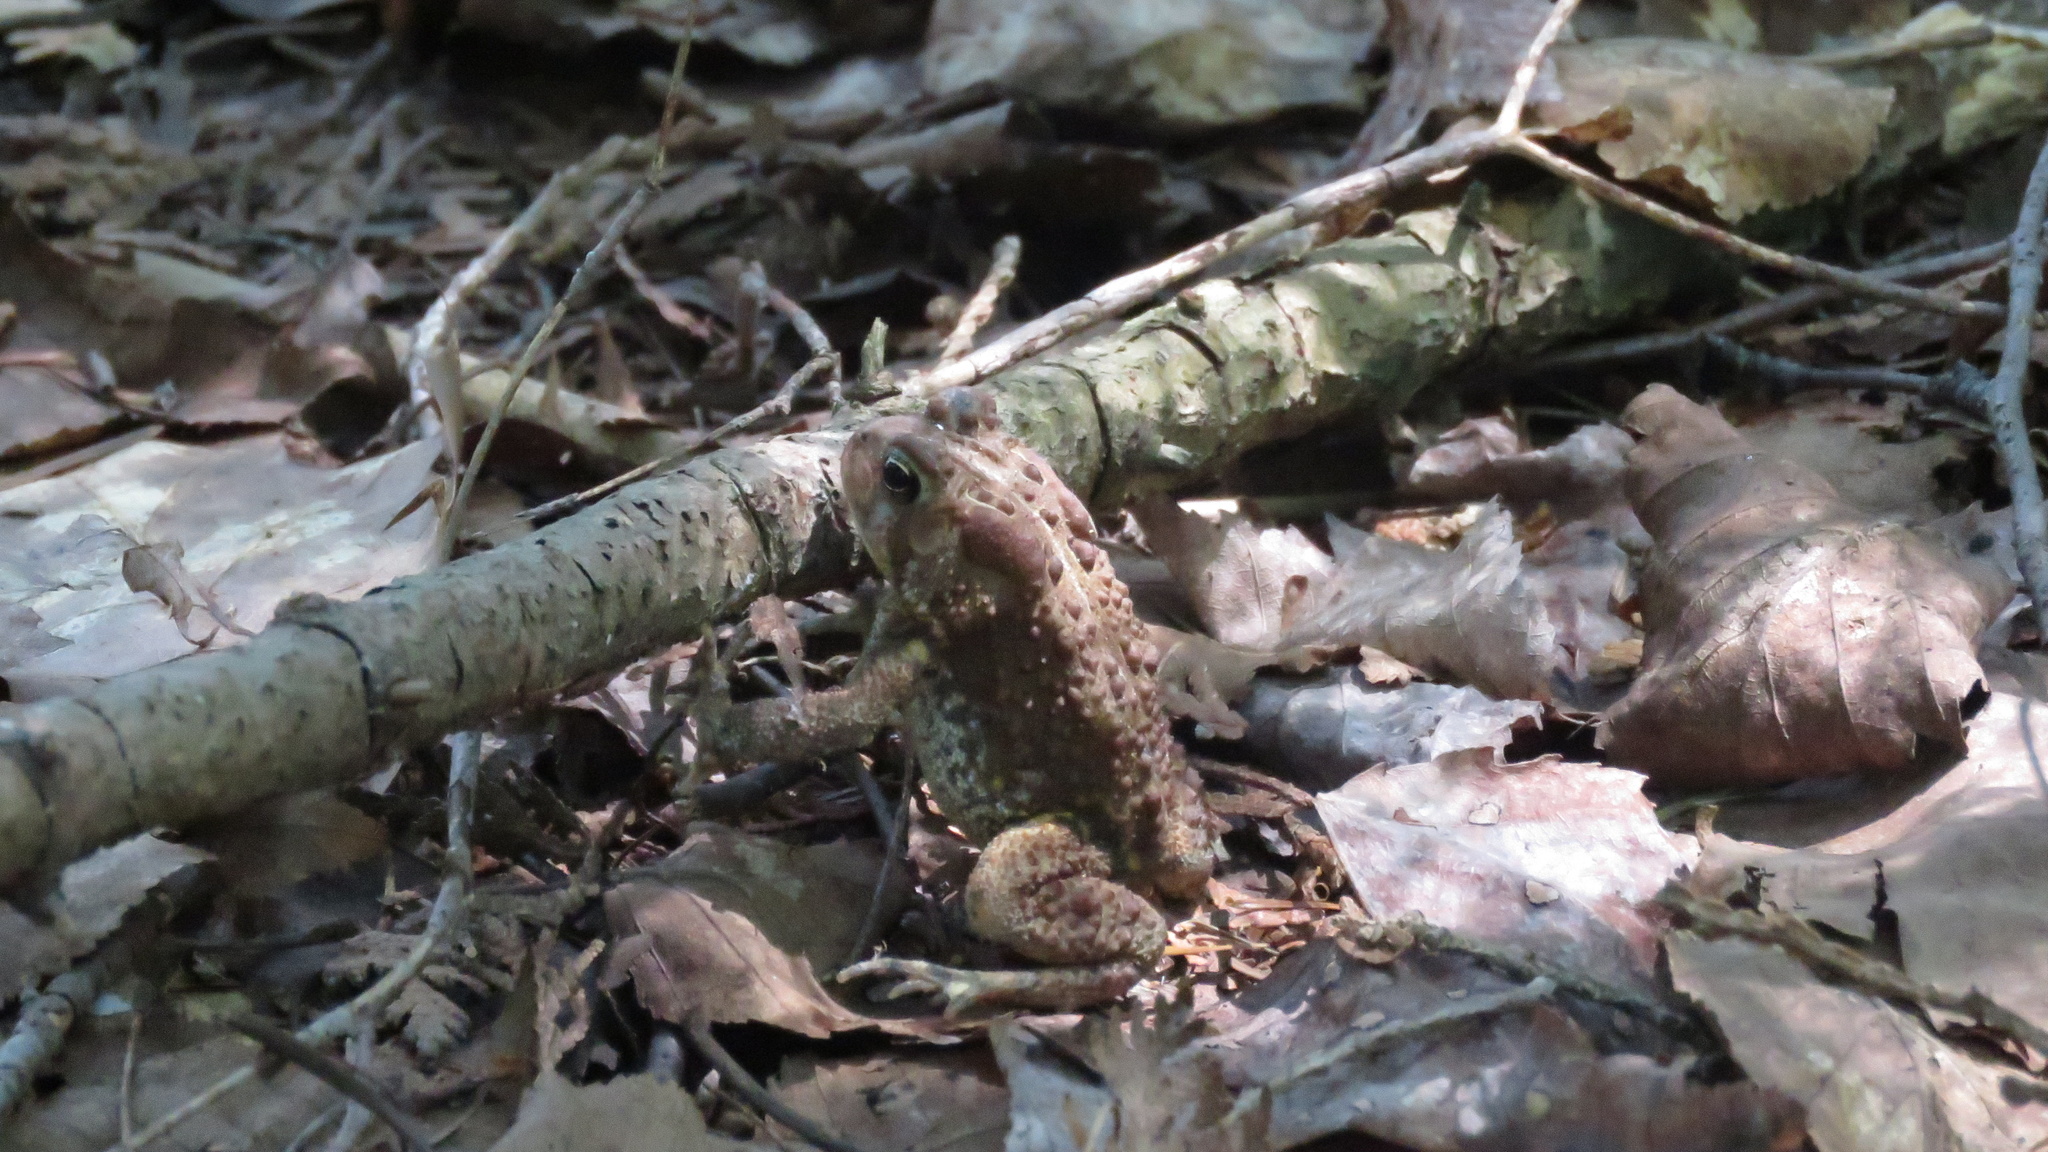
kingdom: Animalia
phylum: Chordata
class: Amphibia
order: Anura
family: Bufonidae
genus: Anaxyrus
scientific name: Anaxyrus americanus
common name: American toad
